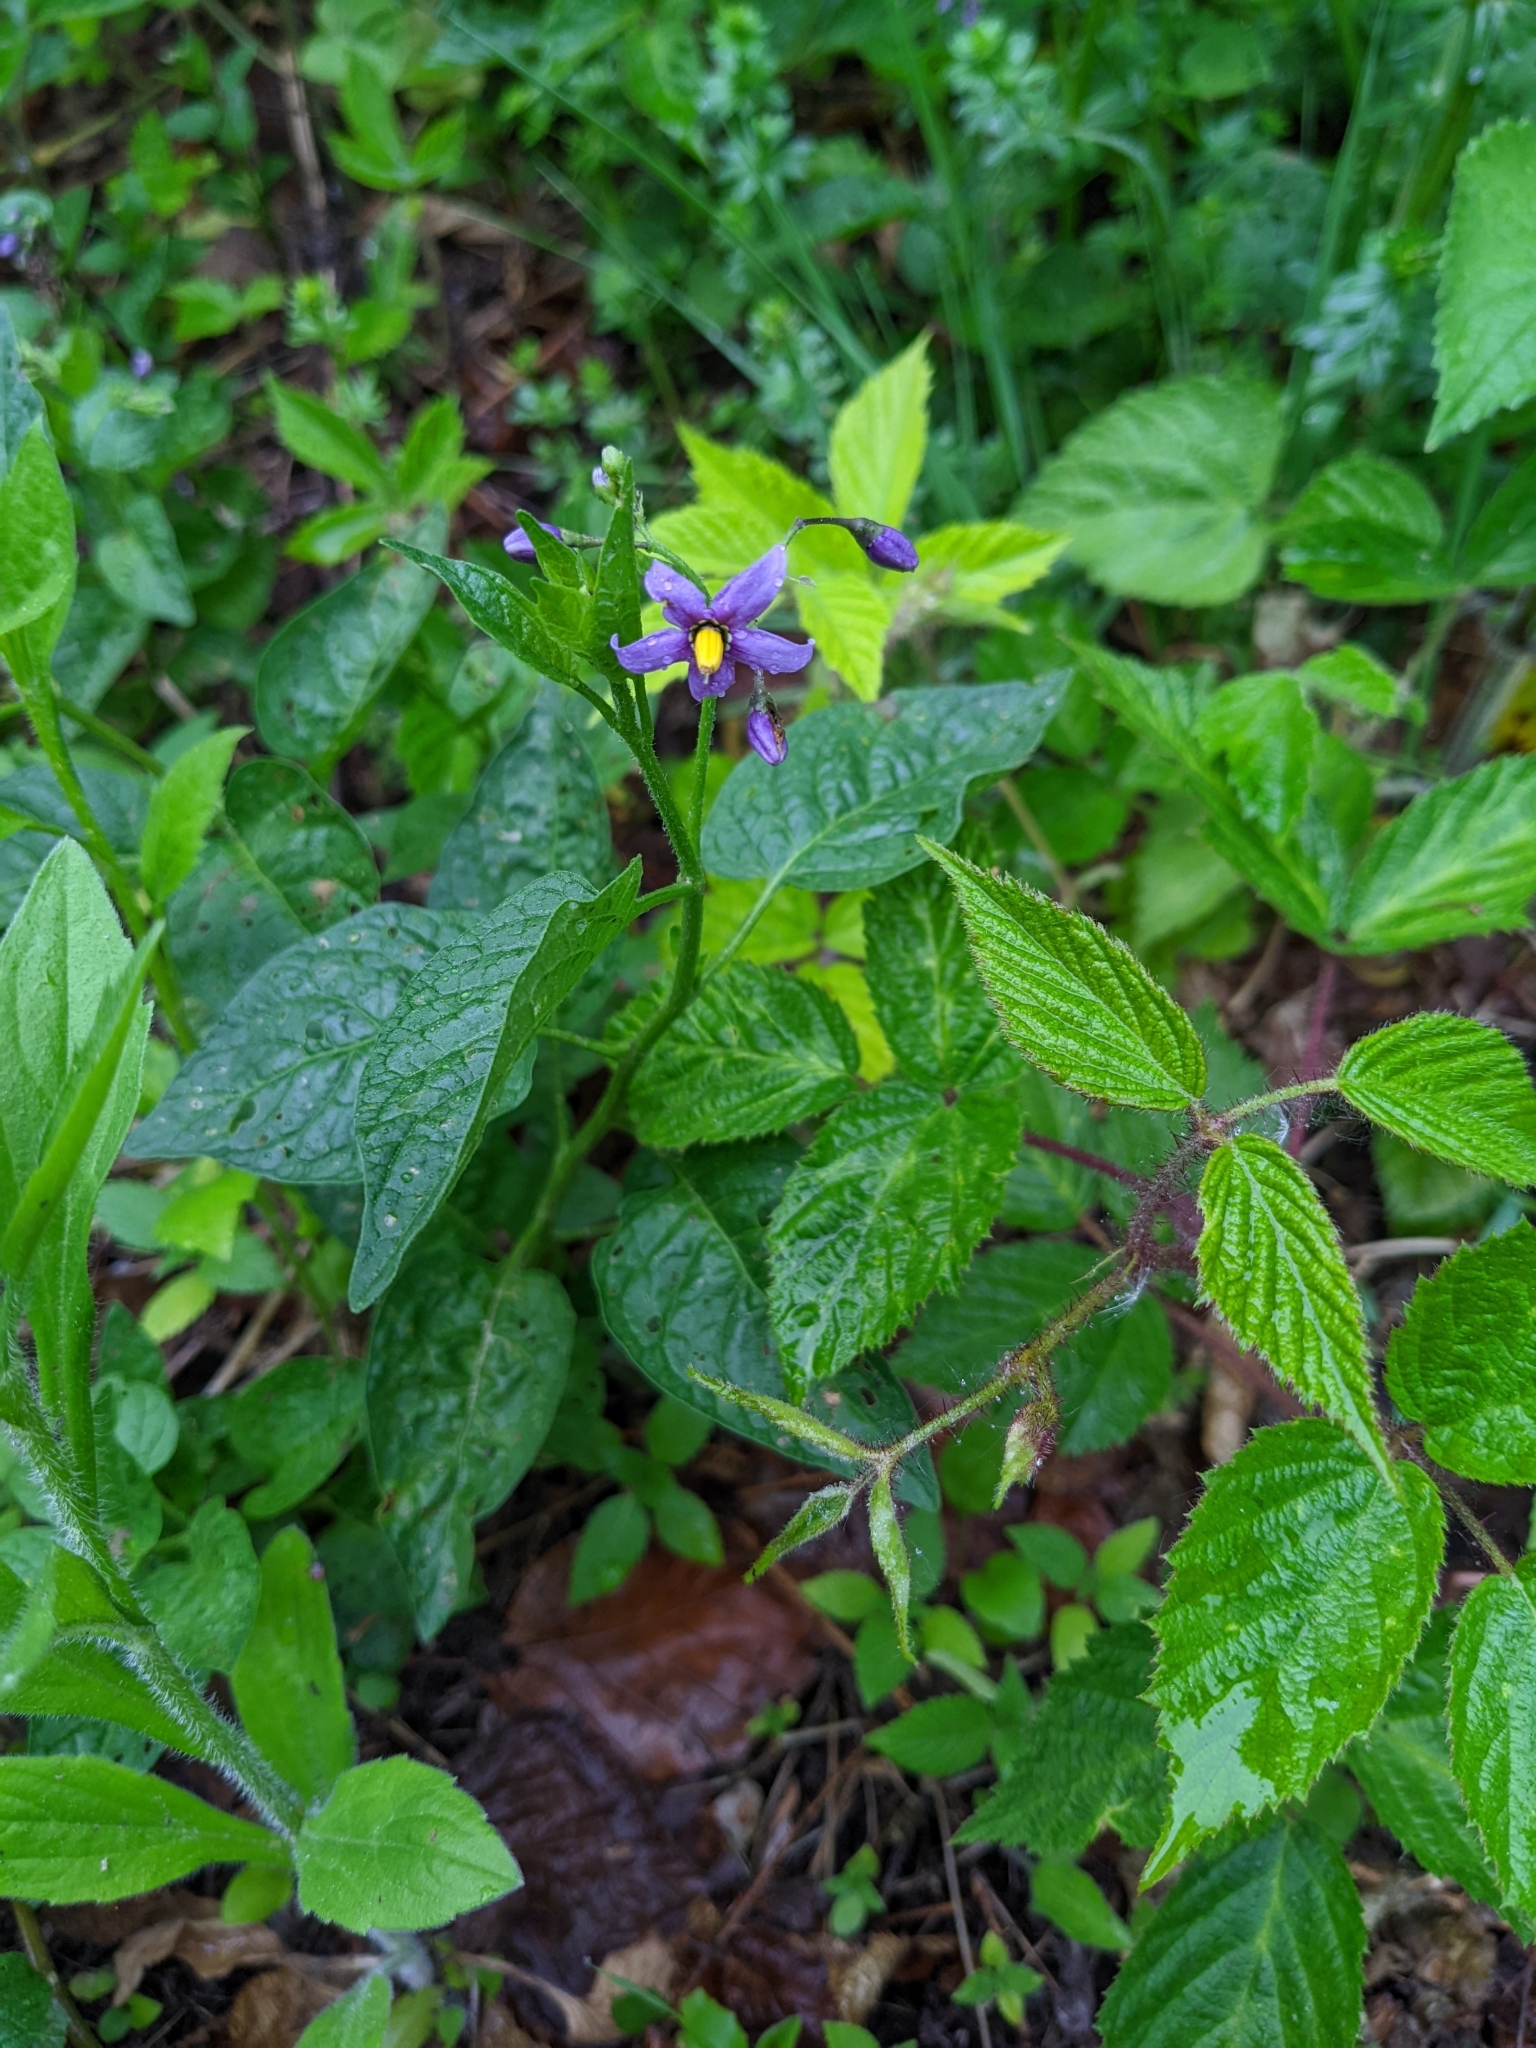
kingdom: Plantae
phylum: Tracheophyta
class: Magnoliopsida
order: Solanales
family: Solanaceae
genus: Solanum
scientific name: Solanum dulcamara
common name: Climbing nightshade
